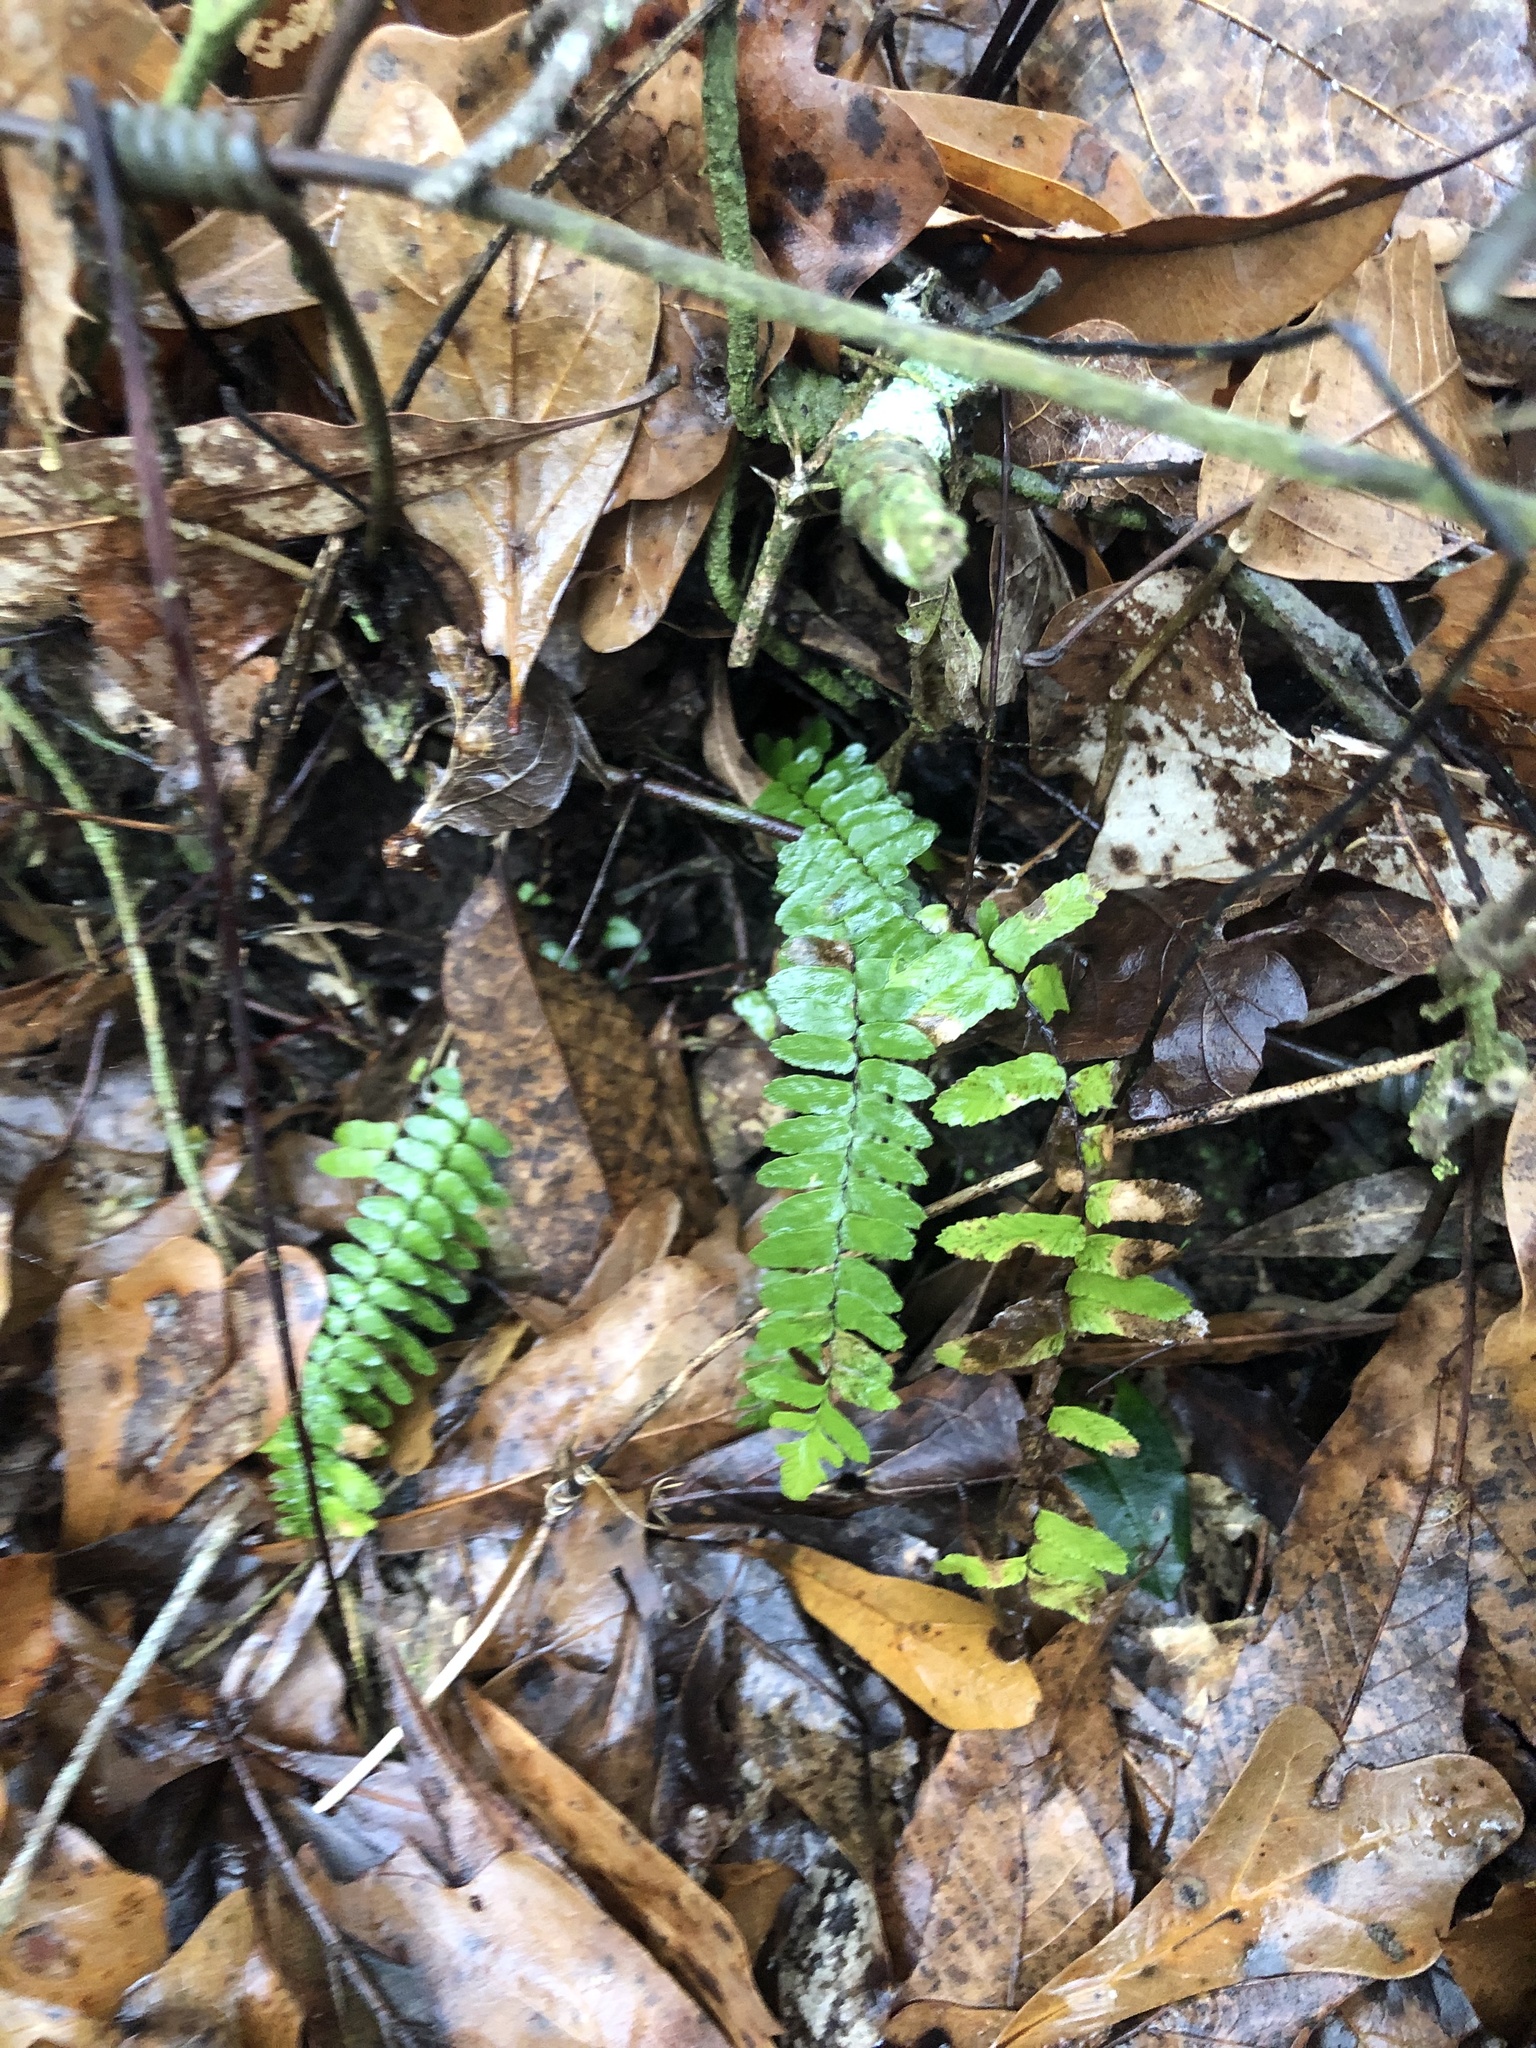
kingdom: Plantae
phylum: Tracheophyta
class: Polypodiopsida
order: Polypodiales
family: Aspleniaceae
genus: Asplenium
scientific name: Asplenium platyneuron
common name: Ebony spleenwort
